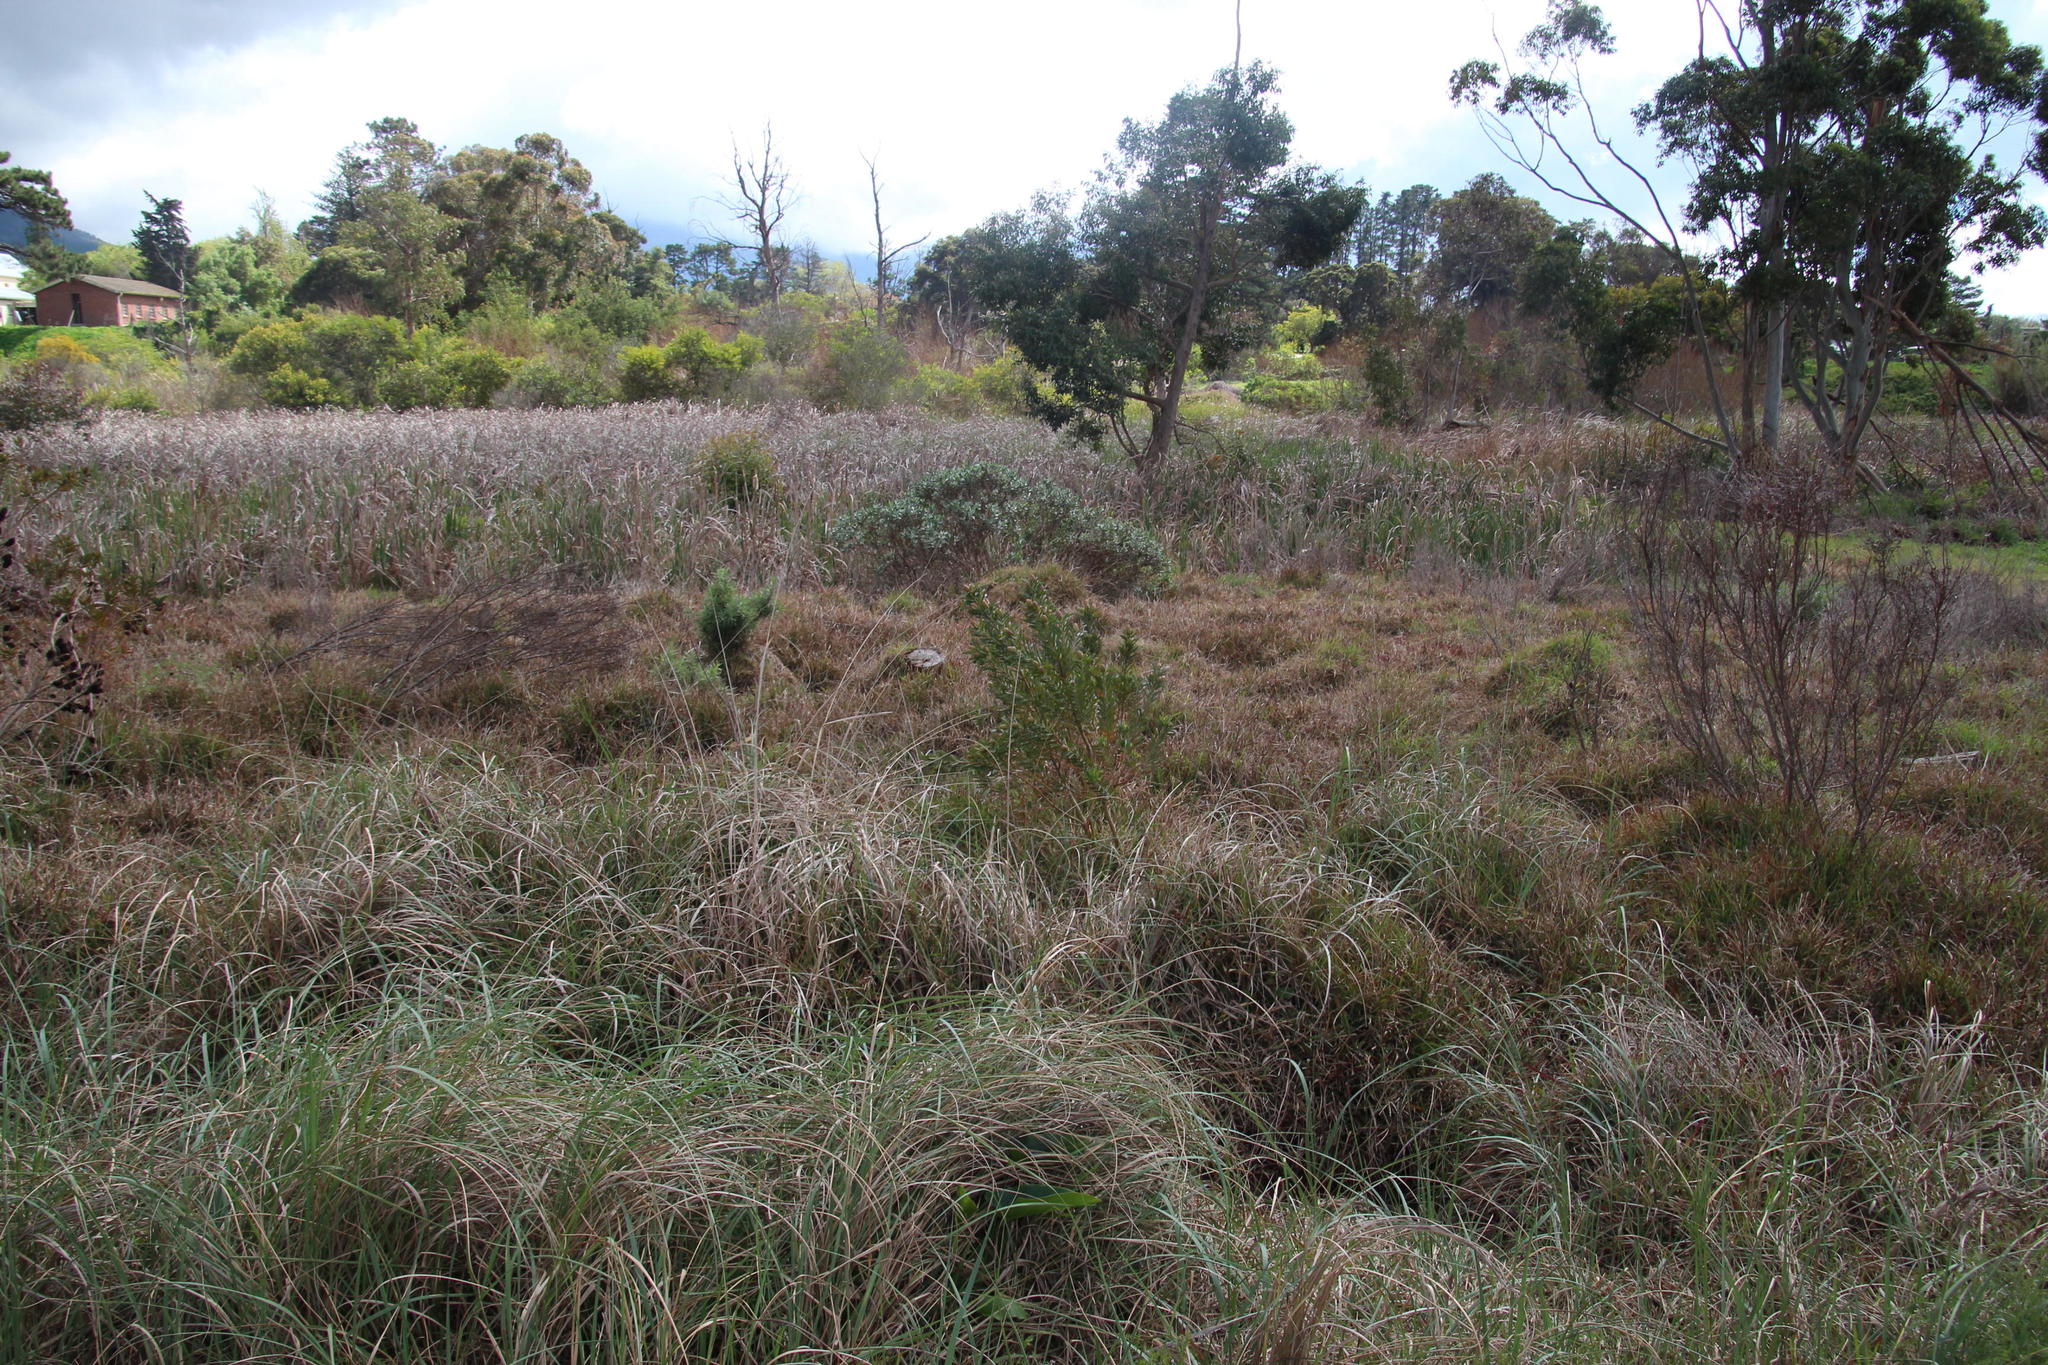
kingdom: Plantae
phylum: Tracheophyta
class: Magnoliopsida
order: Proteales
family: Proteaceae
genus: Leucadendron
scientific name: Leucadendron macowanii
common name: Acacia-leaf conebush
